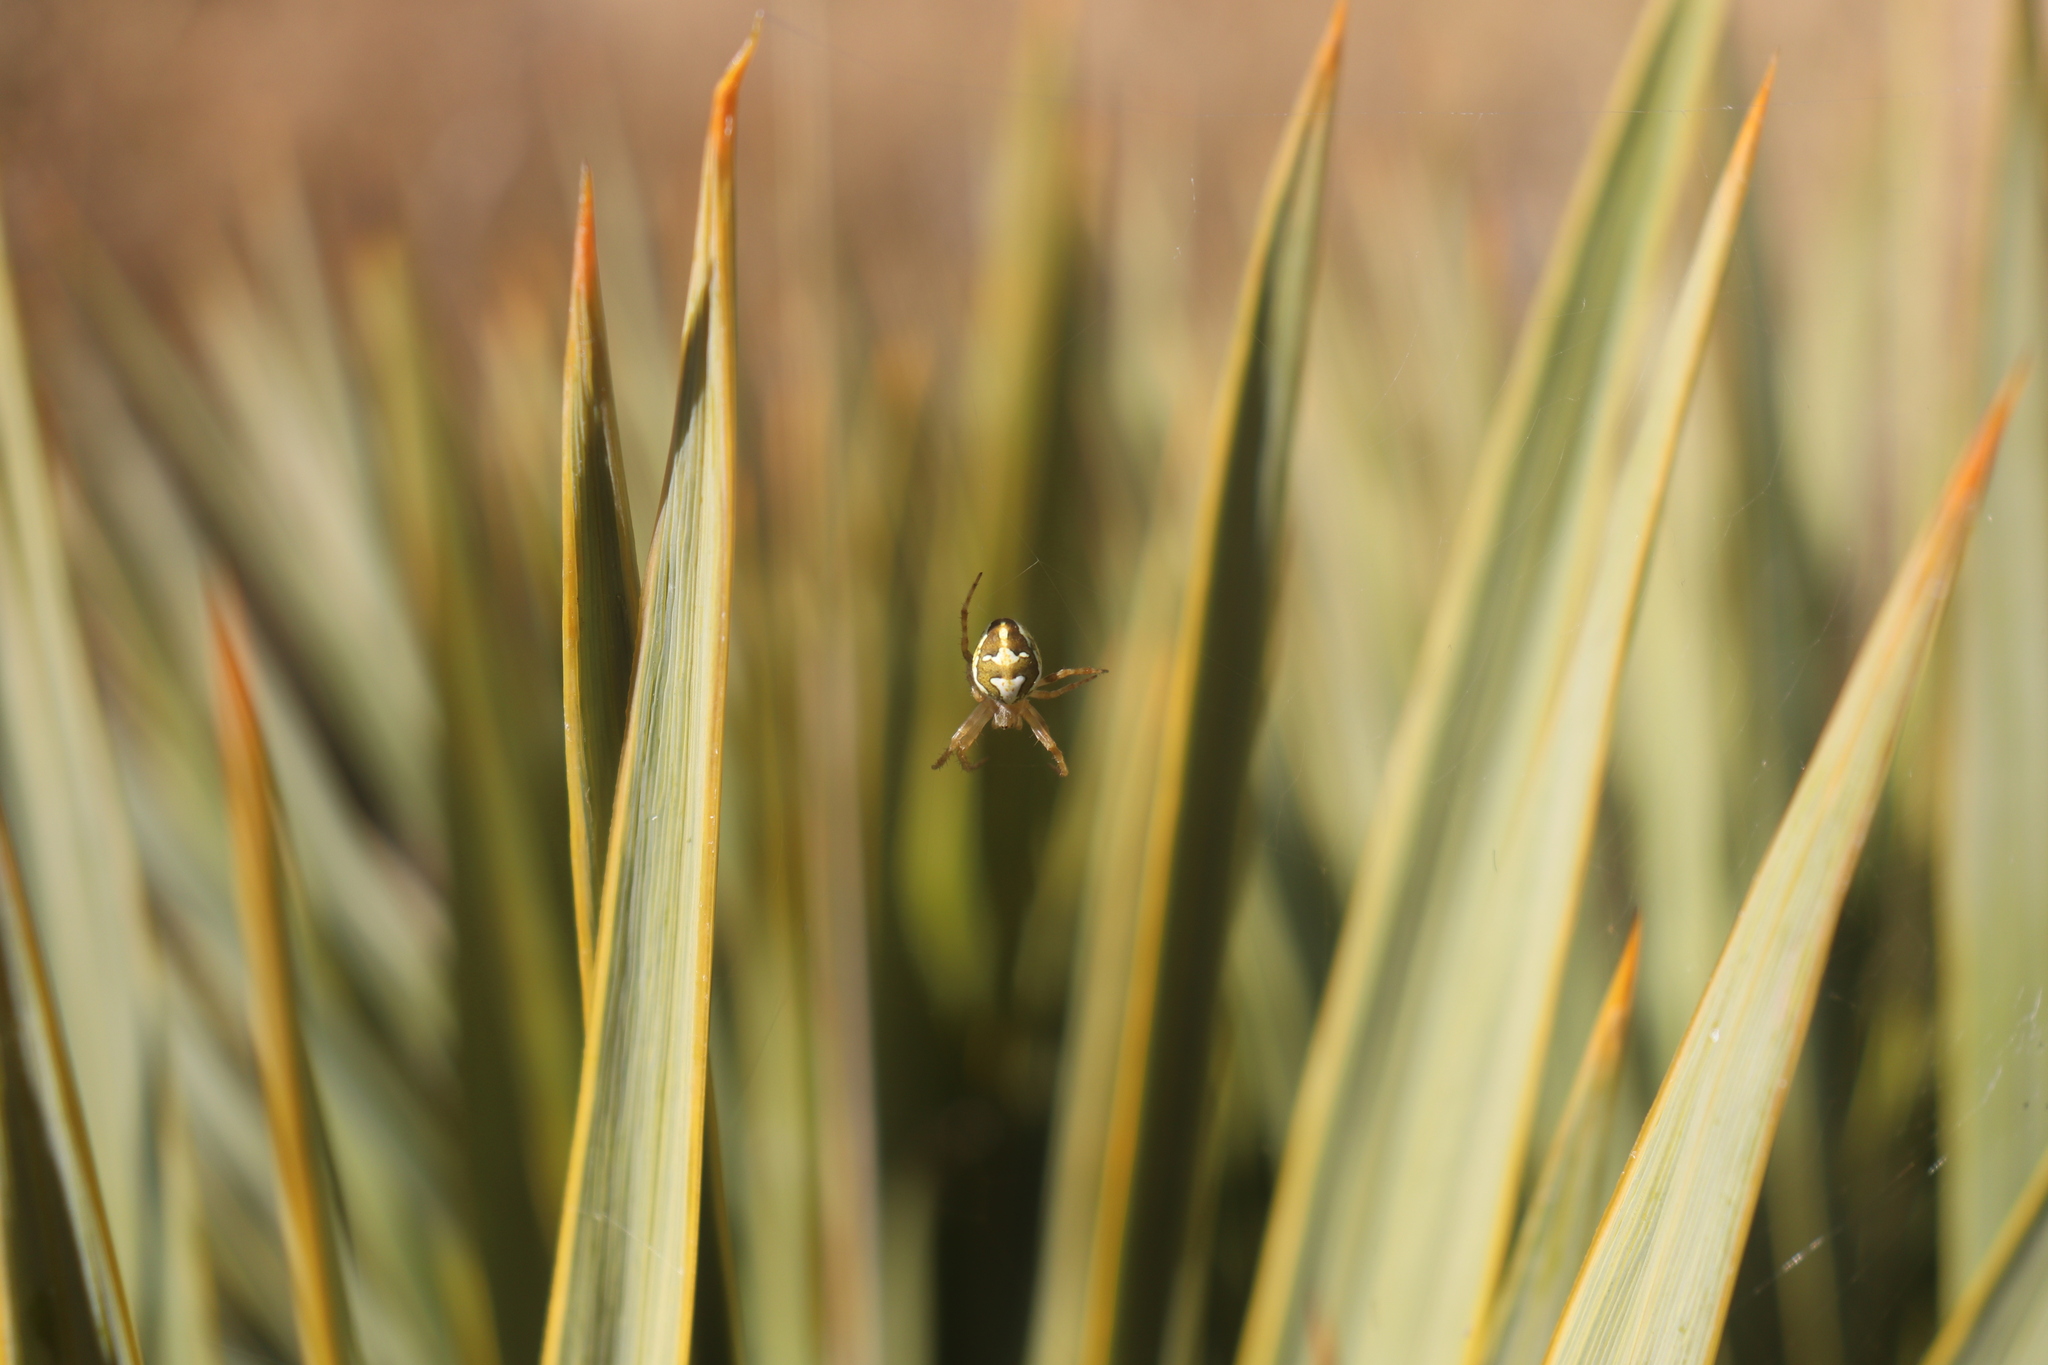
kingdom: Animalia
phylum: Arthropoda
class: Arachnida
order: Araneae
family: Araneidae
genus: Colaranea
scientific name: Colaranea verutum
